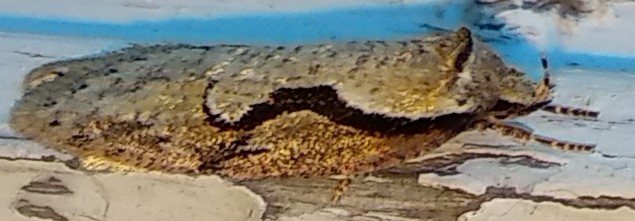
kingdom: Animalia
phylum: Arthropoda
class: Insecta
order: Lepidoptera
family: Depressariidae
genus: Semioscopis
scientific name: Semioscopis packardella
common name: Packard's concealer moth
